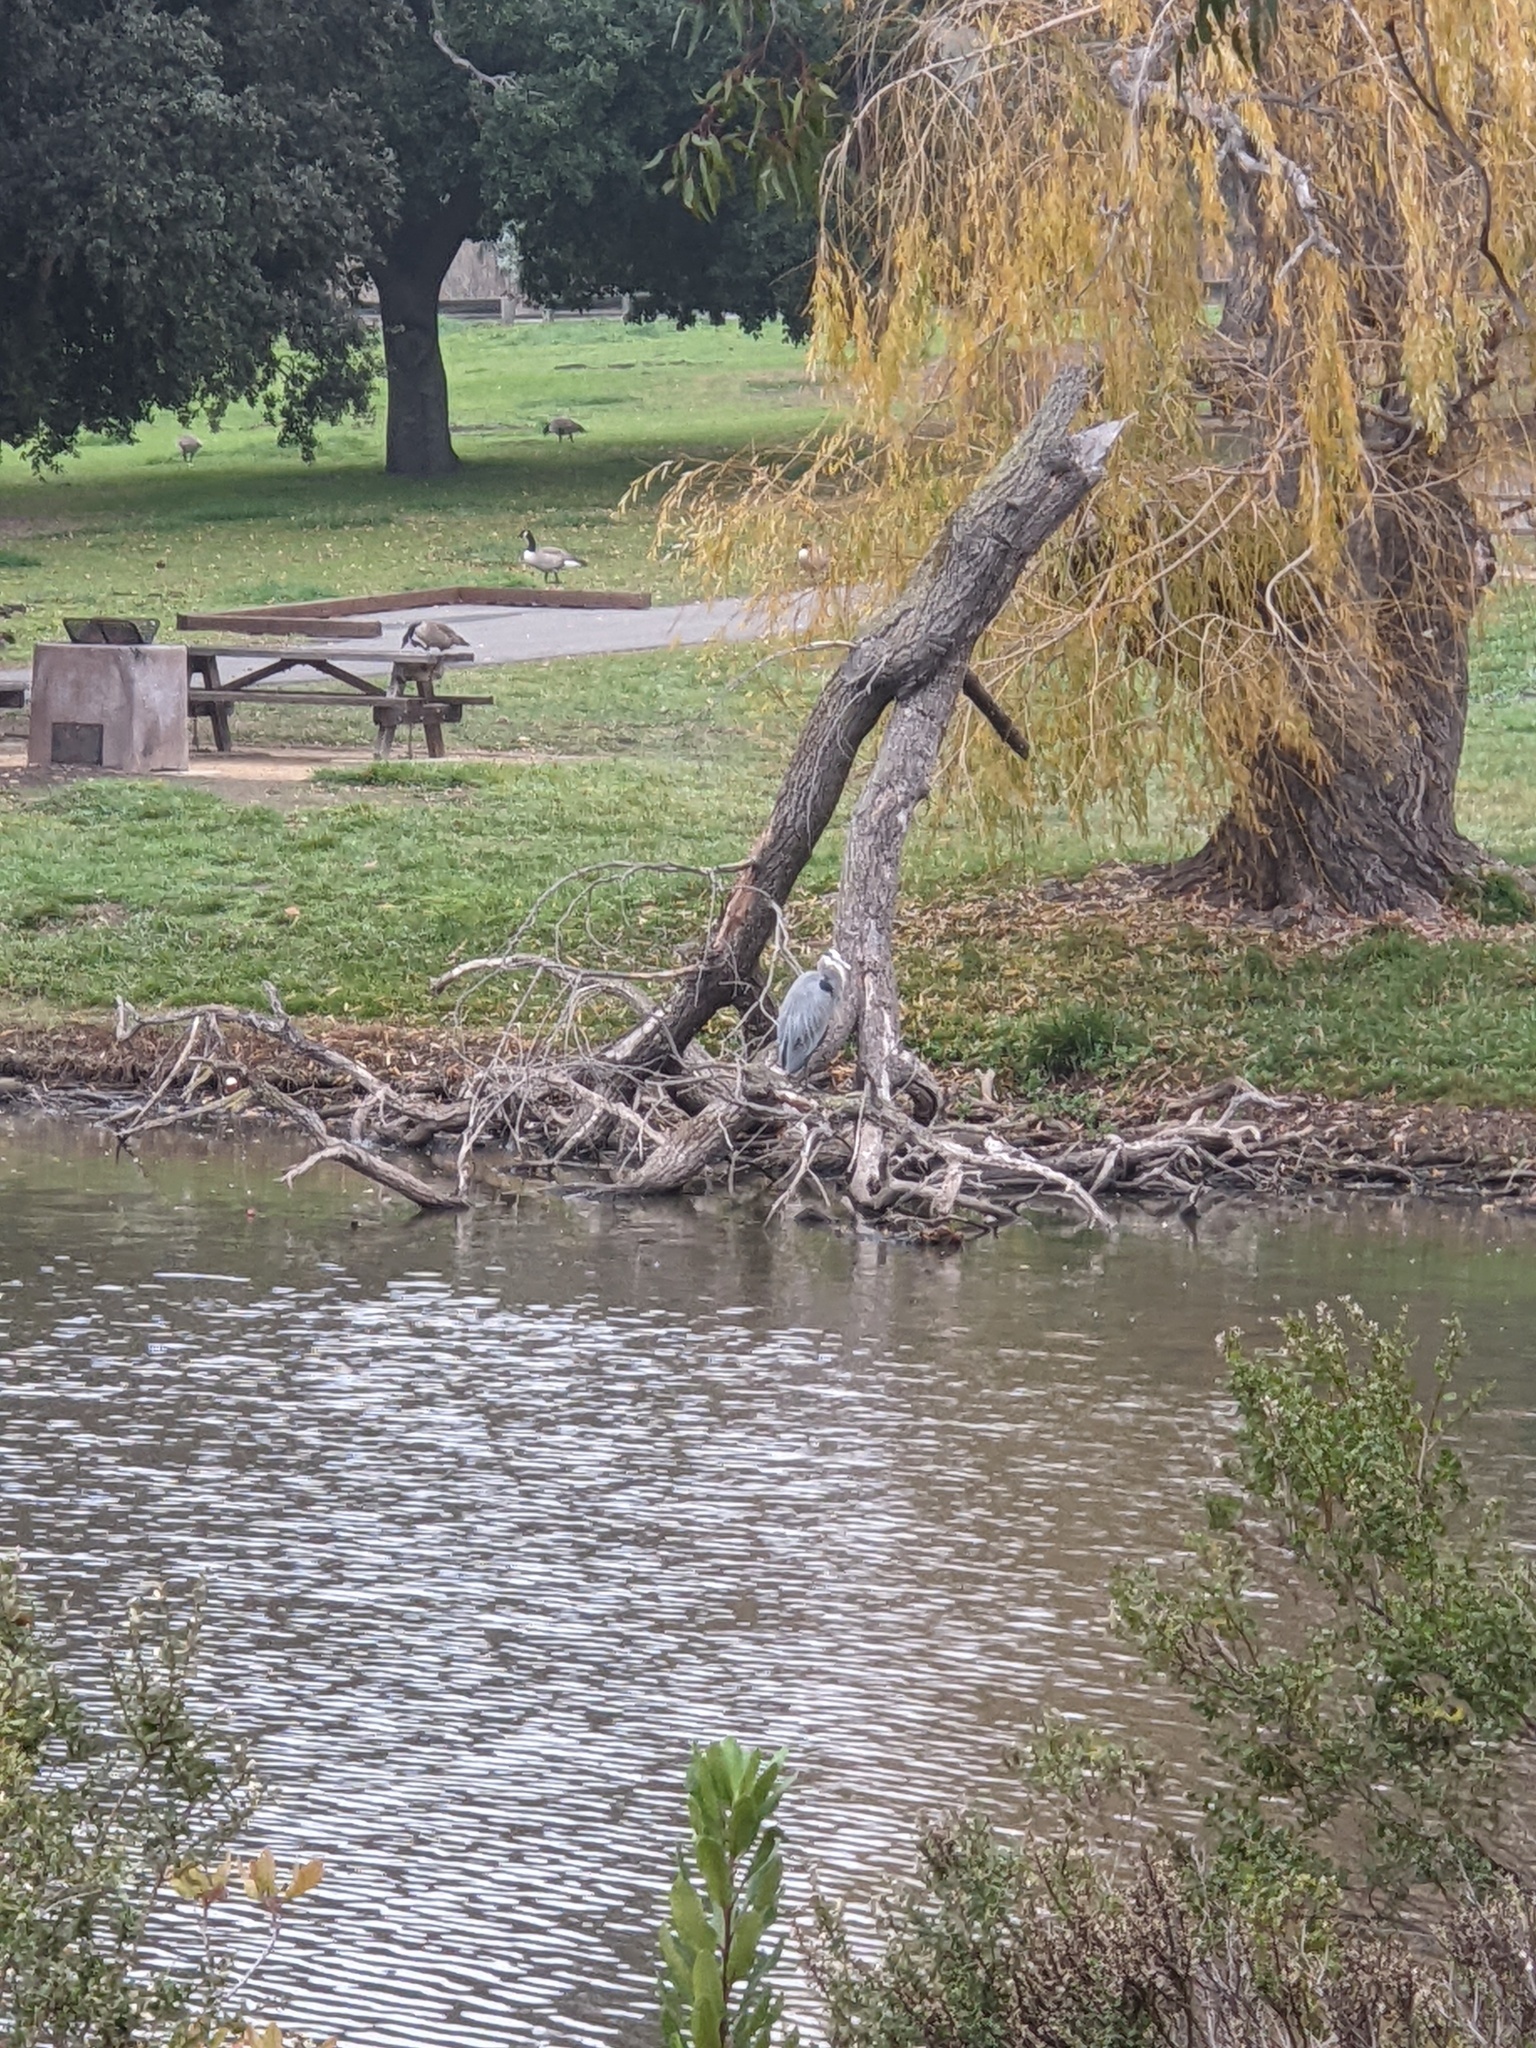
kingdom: Animalia
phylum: Chordata
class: Aves
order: Pelecaniformes
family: Ardeidae
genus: Ardea
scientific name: Ardea herodias
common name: Great blue heron
